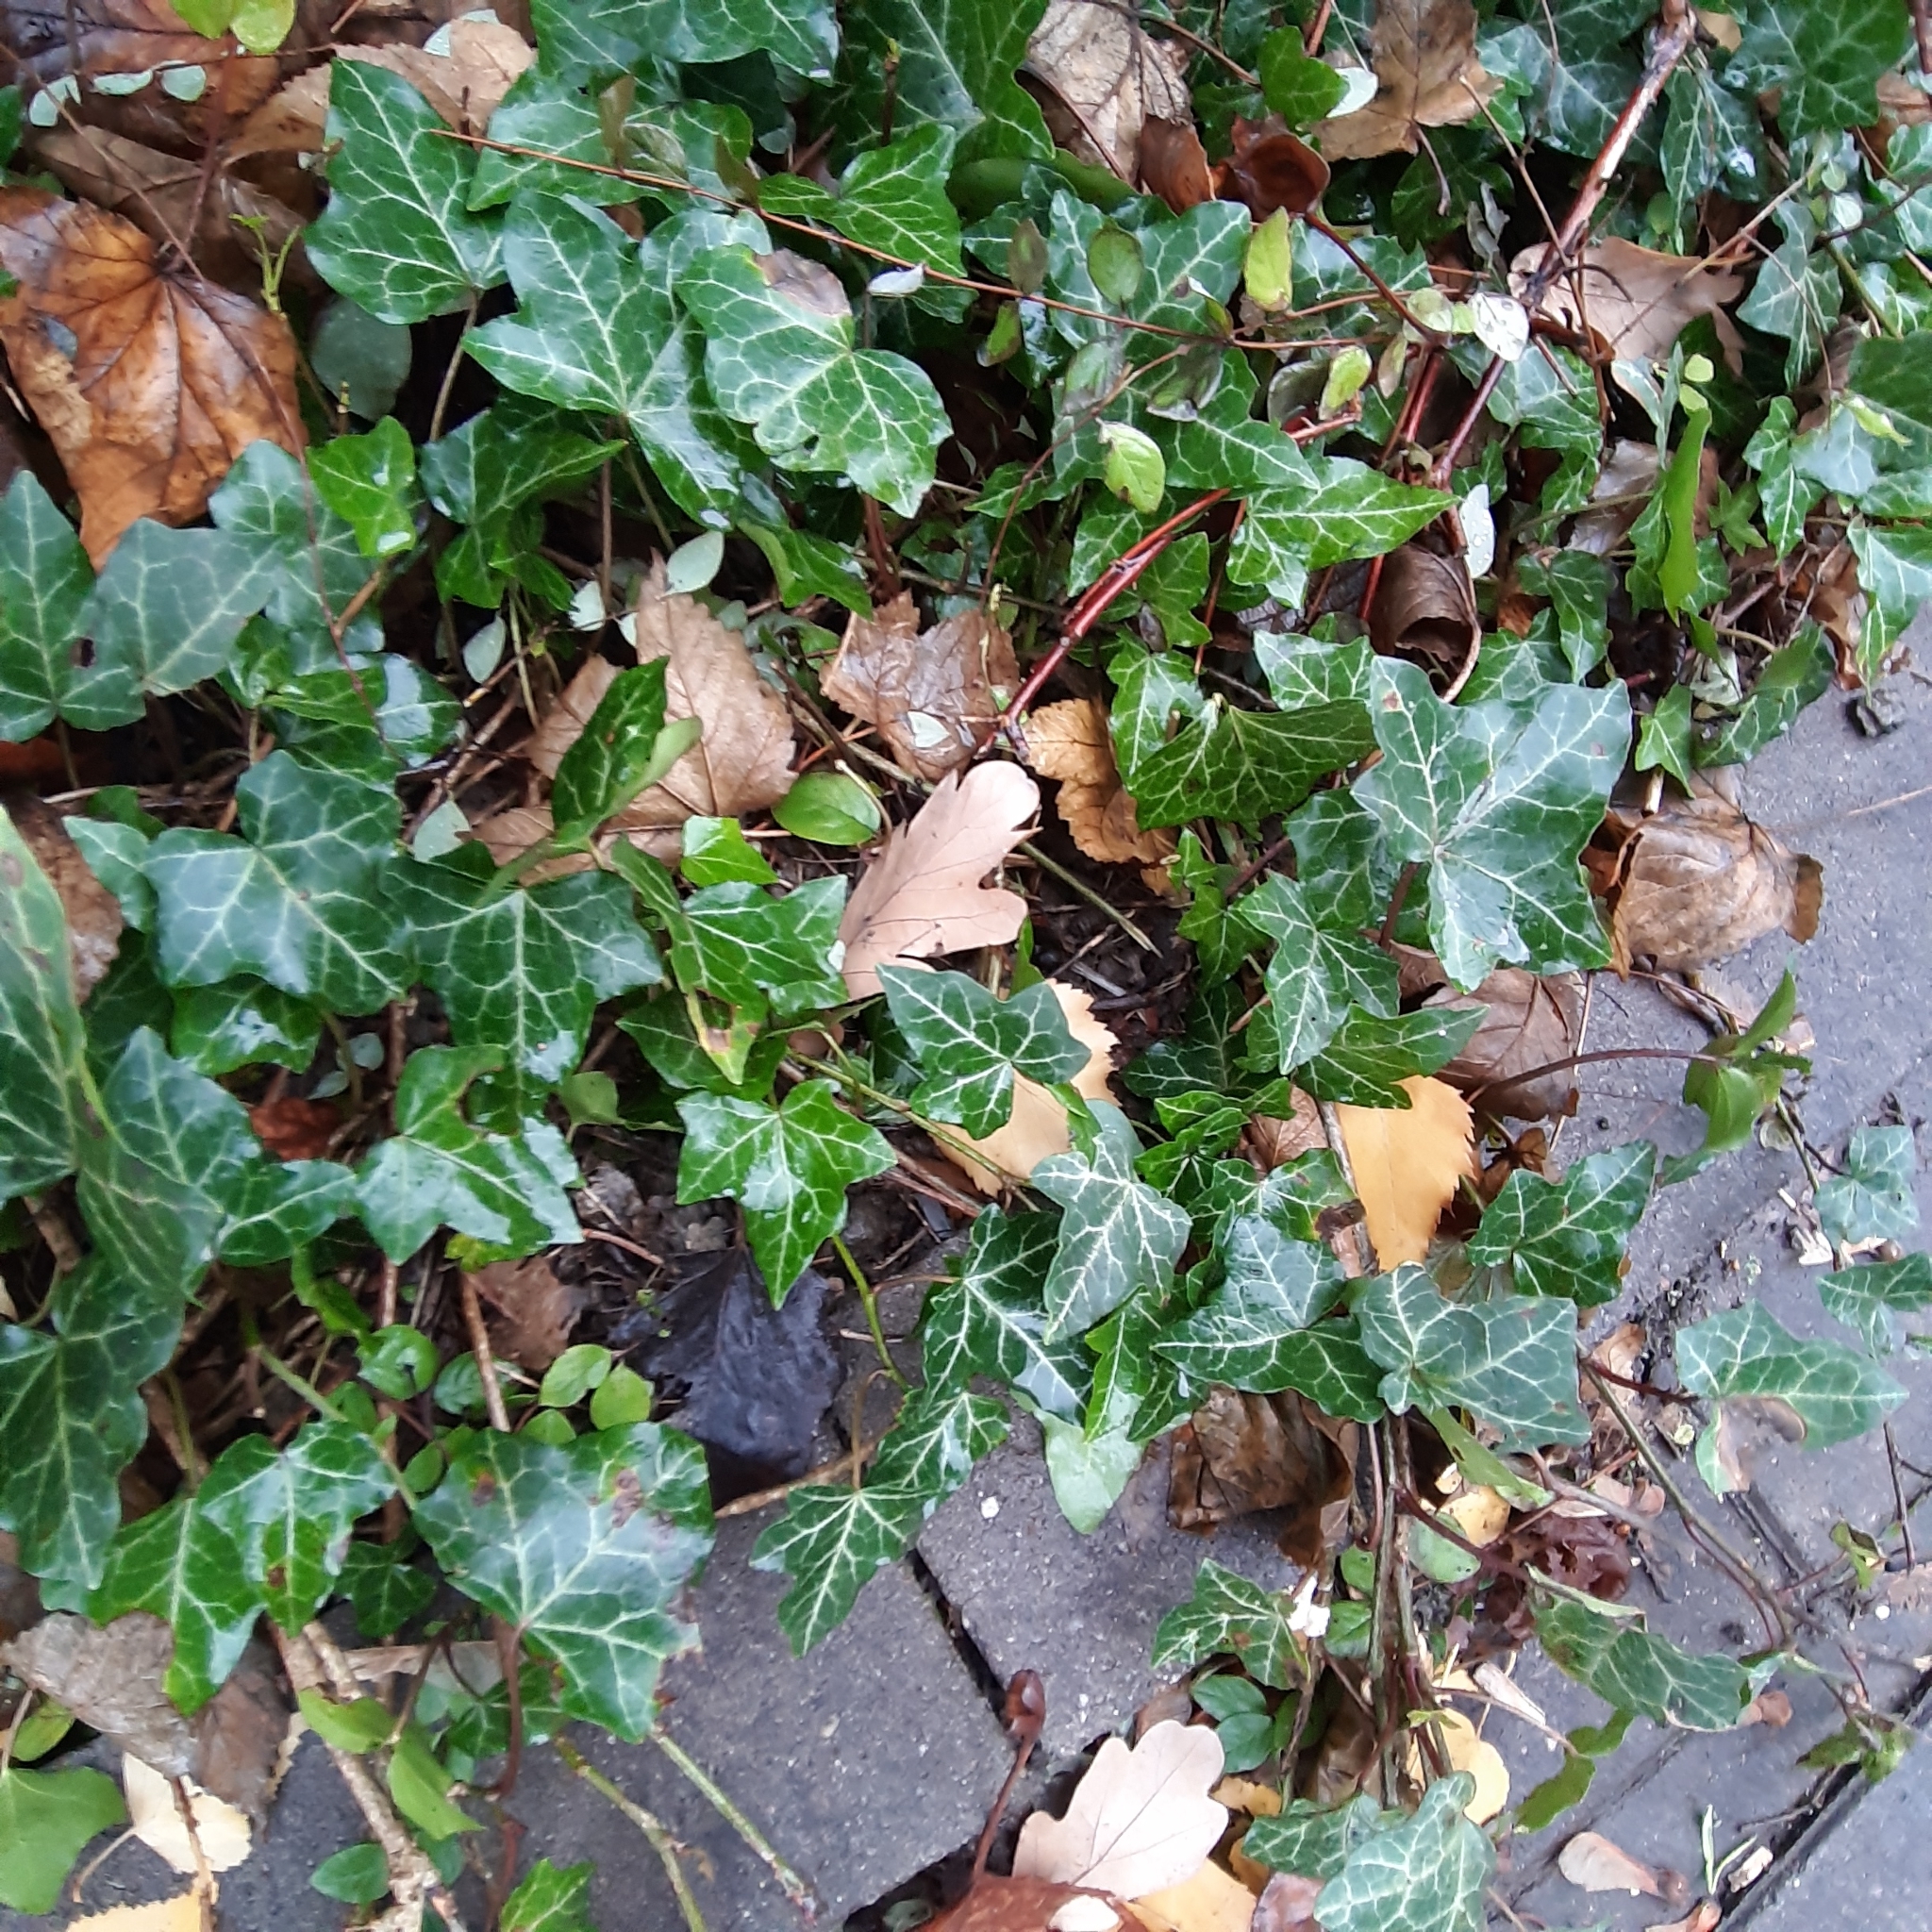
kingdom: Plantae
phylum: Tracheophyta
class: Magnoliopsida
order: Apiales
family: Araliaceae
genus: Hedera
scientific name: Hedera helix
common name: Ivy
